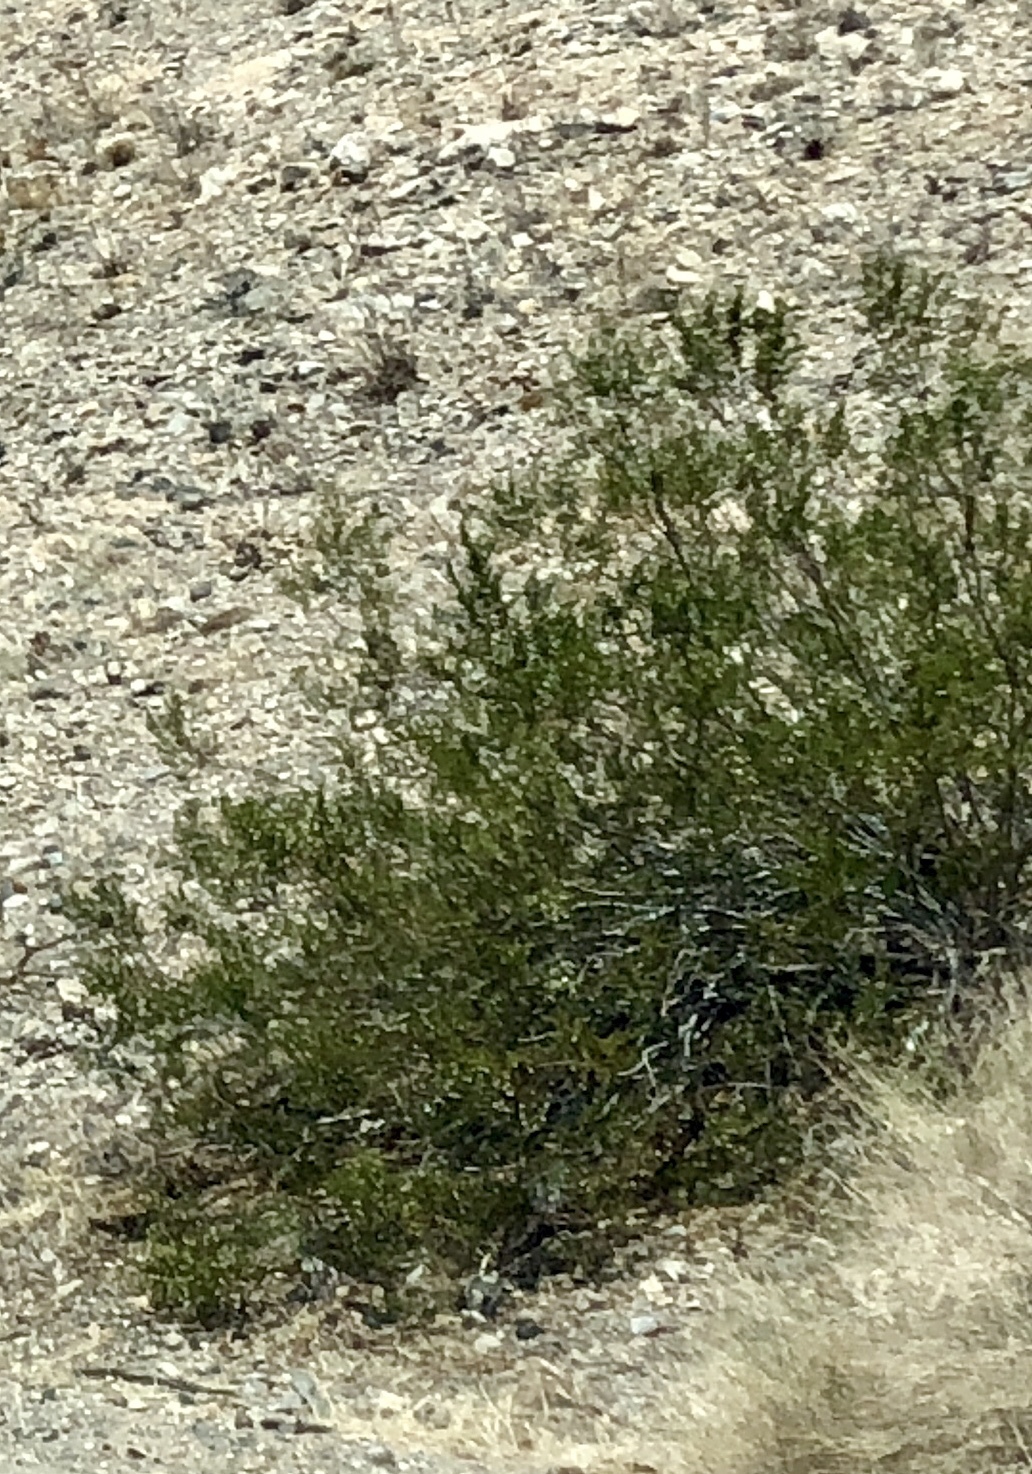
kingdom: Plantae
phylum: Tracheophyta
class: Magnoliopsida
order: Zygophyllales
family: Zygophyllaceae
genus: Larrea
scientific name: Larrea tridentata
